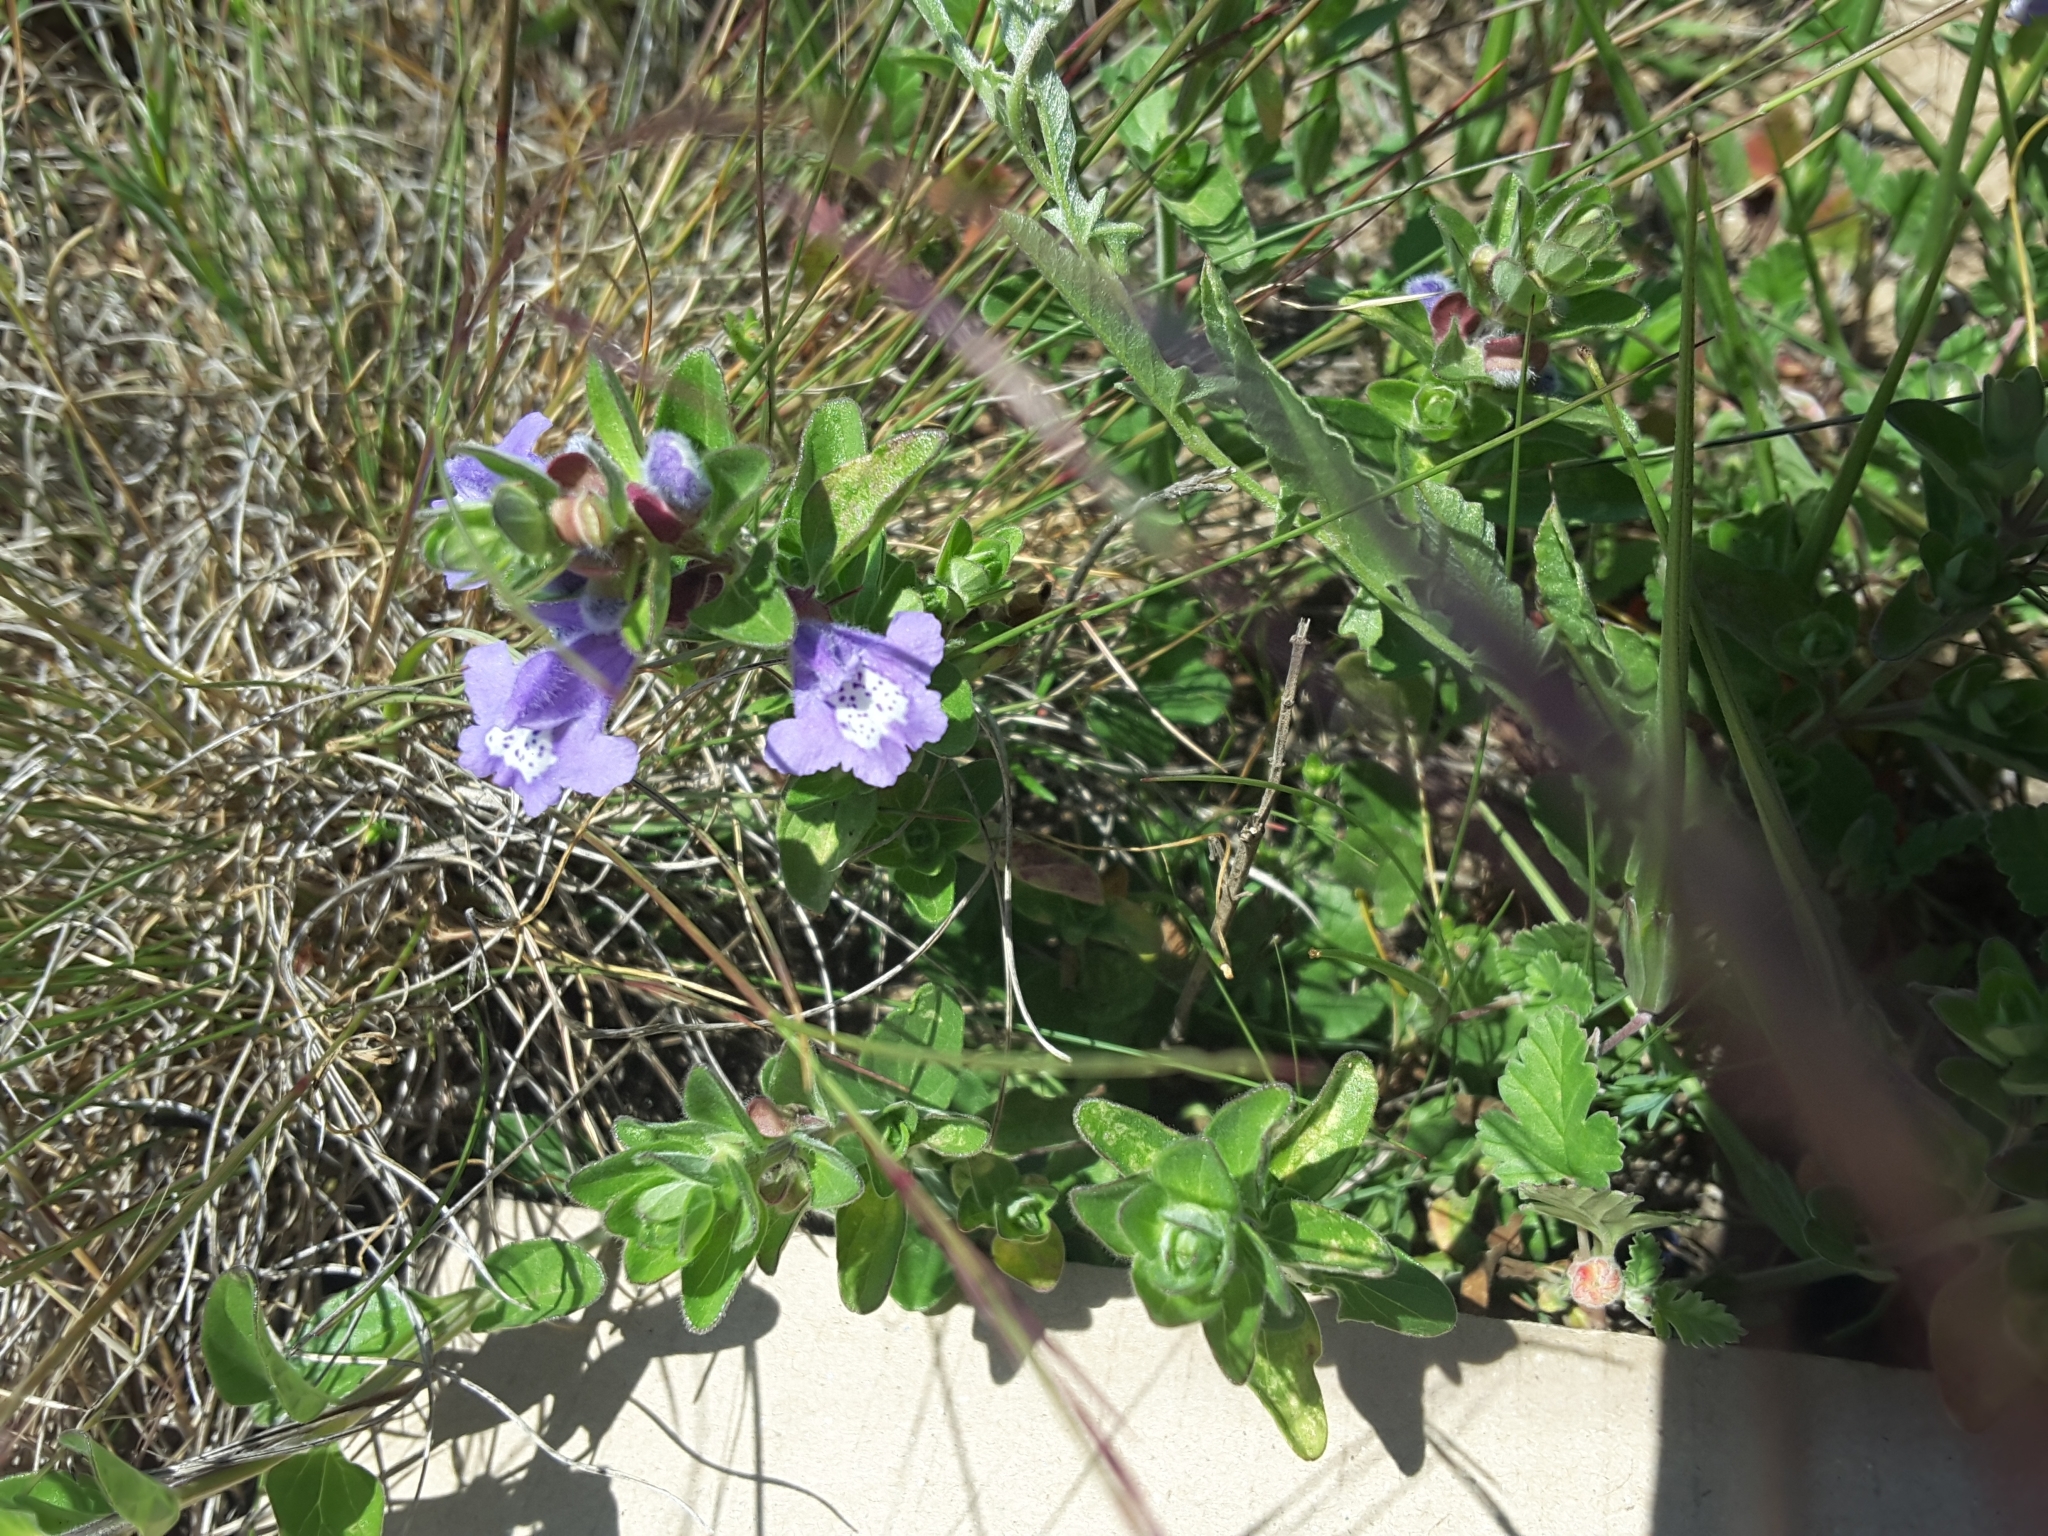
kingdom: Plantae
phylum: Tracheophyta
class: Magnoliopsida
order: Lamiales
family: Lamiaceae
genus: Scutellaria
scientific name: Scutellaria drummondii
